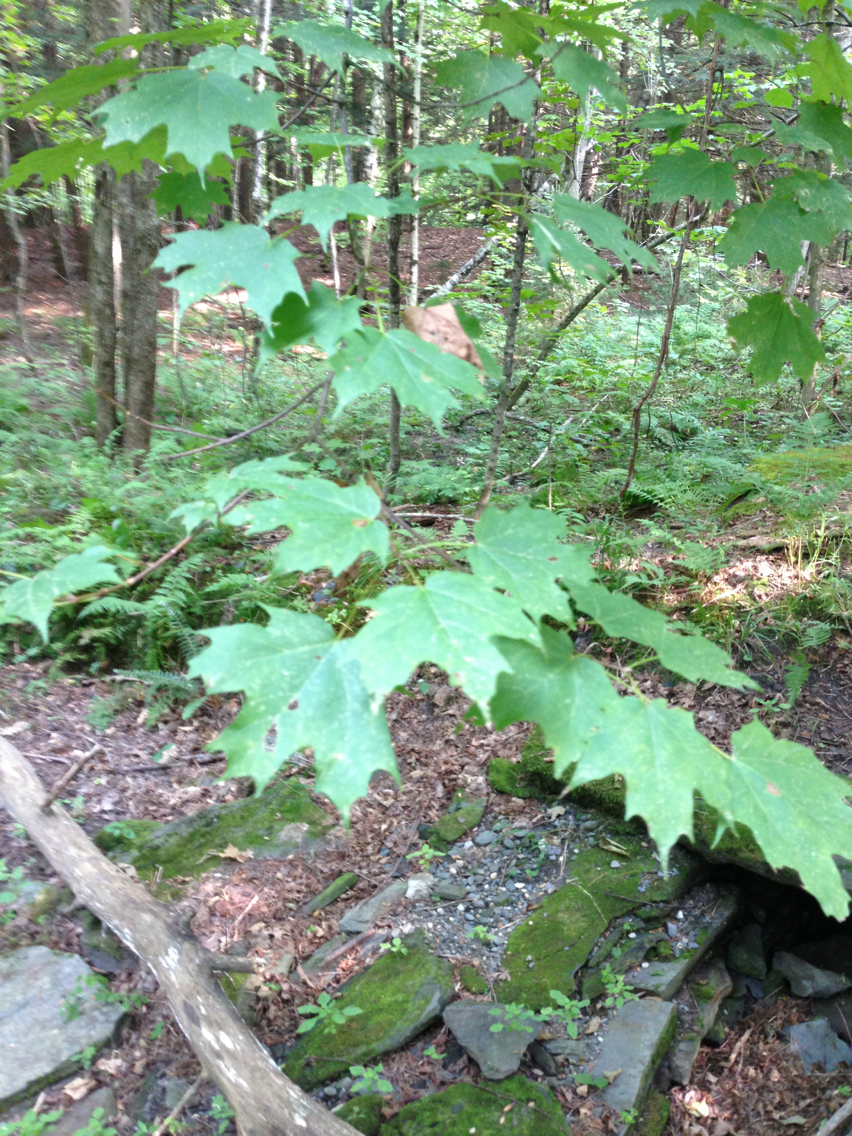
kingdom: Plantae
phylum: Tracheophyta
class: Magnoliopsida
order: Sapindales
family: Sapindaceae
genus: Acer
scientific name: Acer saccharum
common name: Sugar maple
